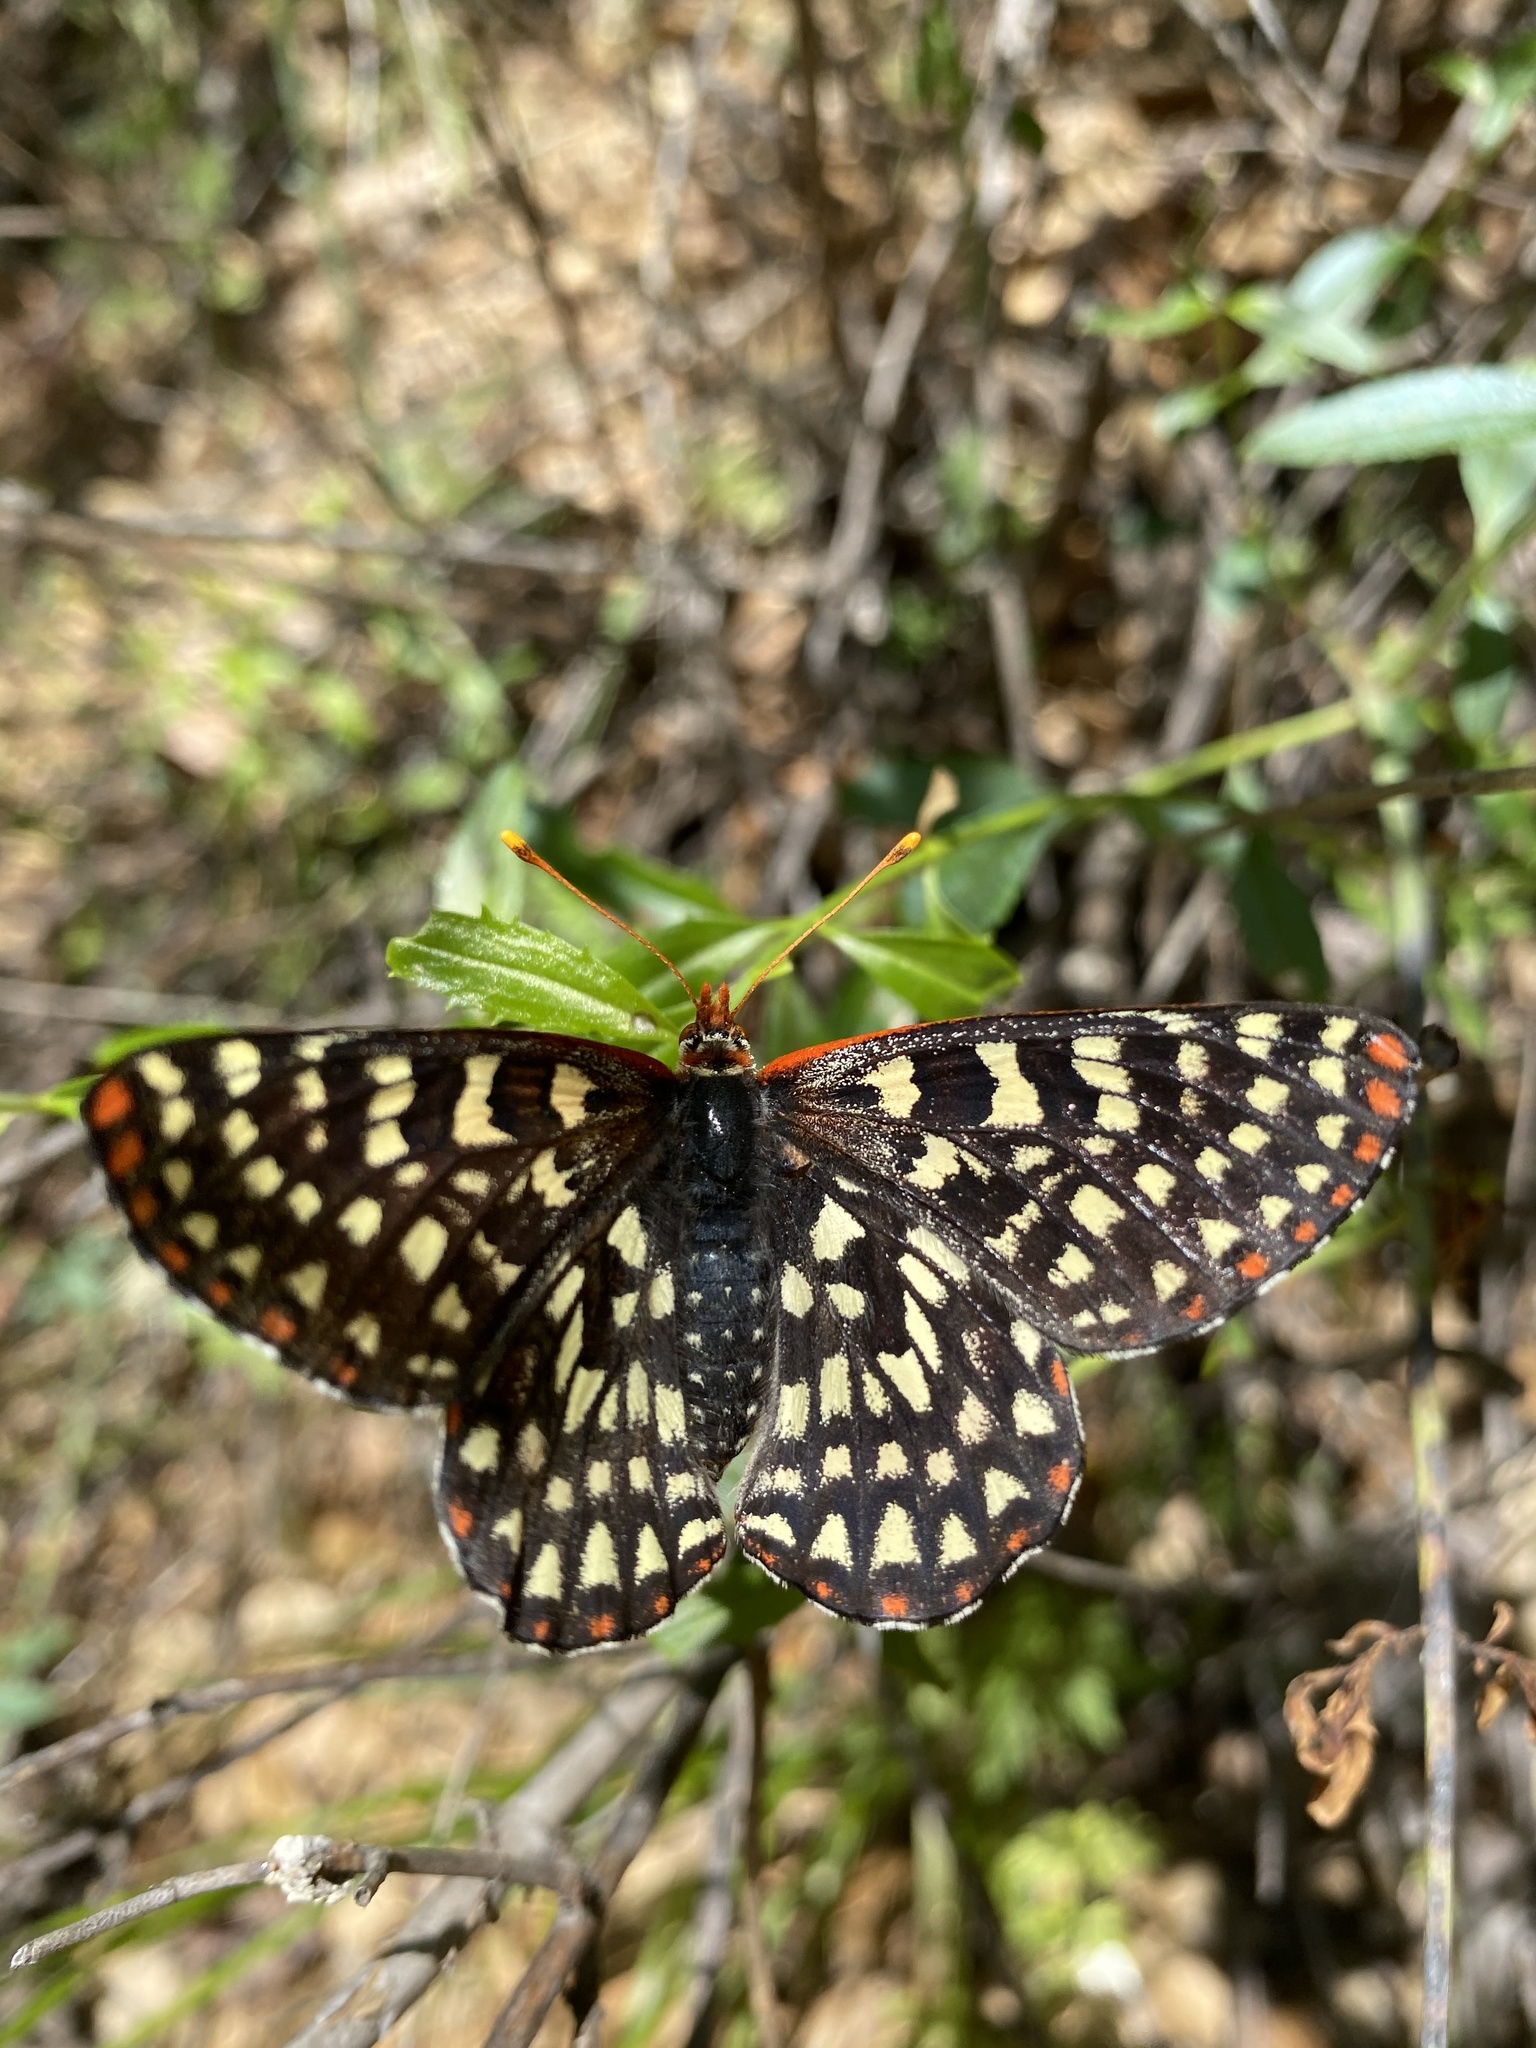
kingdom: Animalia
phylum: Arthropoda
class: Insecta
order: Lepidoptera
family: Nymphalidae
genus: Occidryas
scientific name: Occidryas chalcedona
